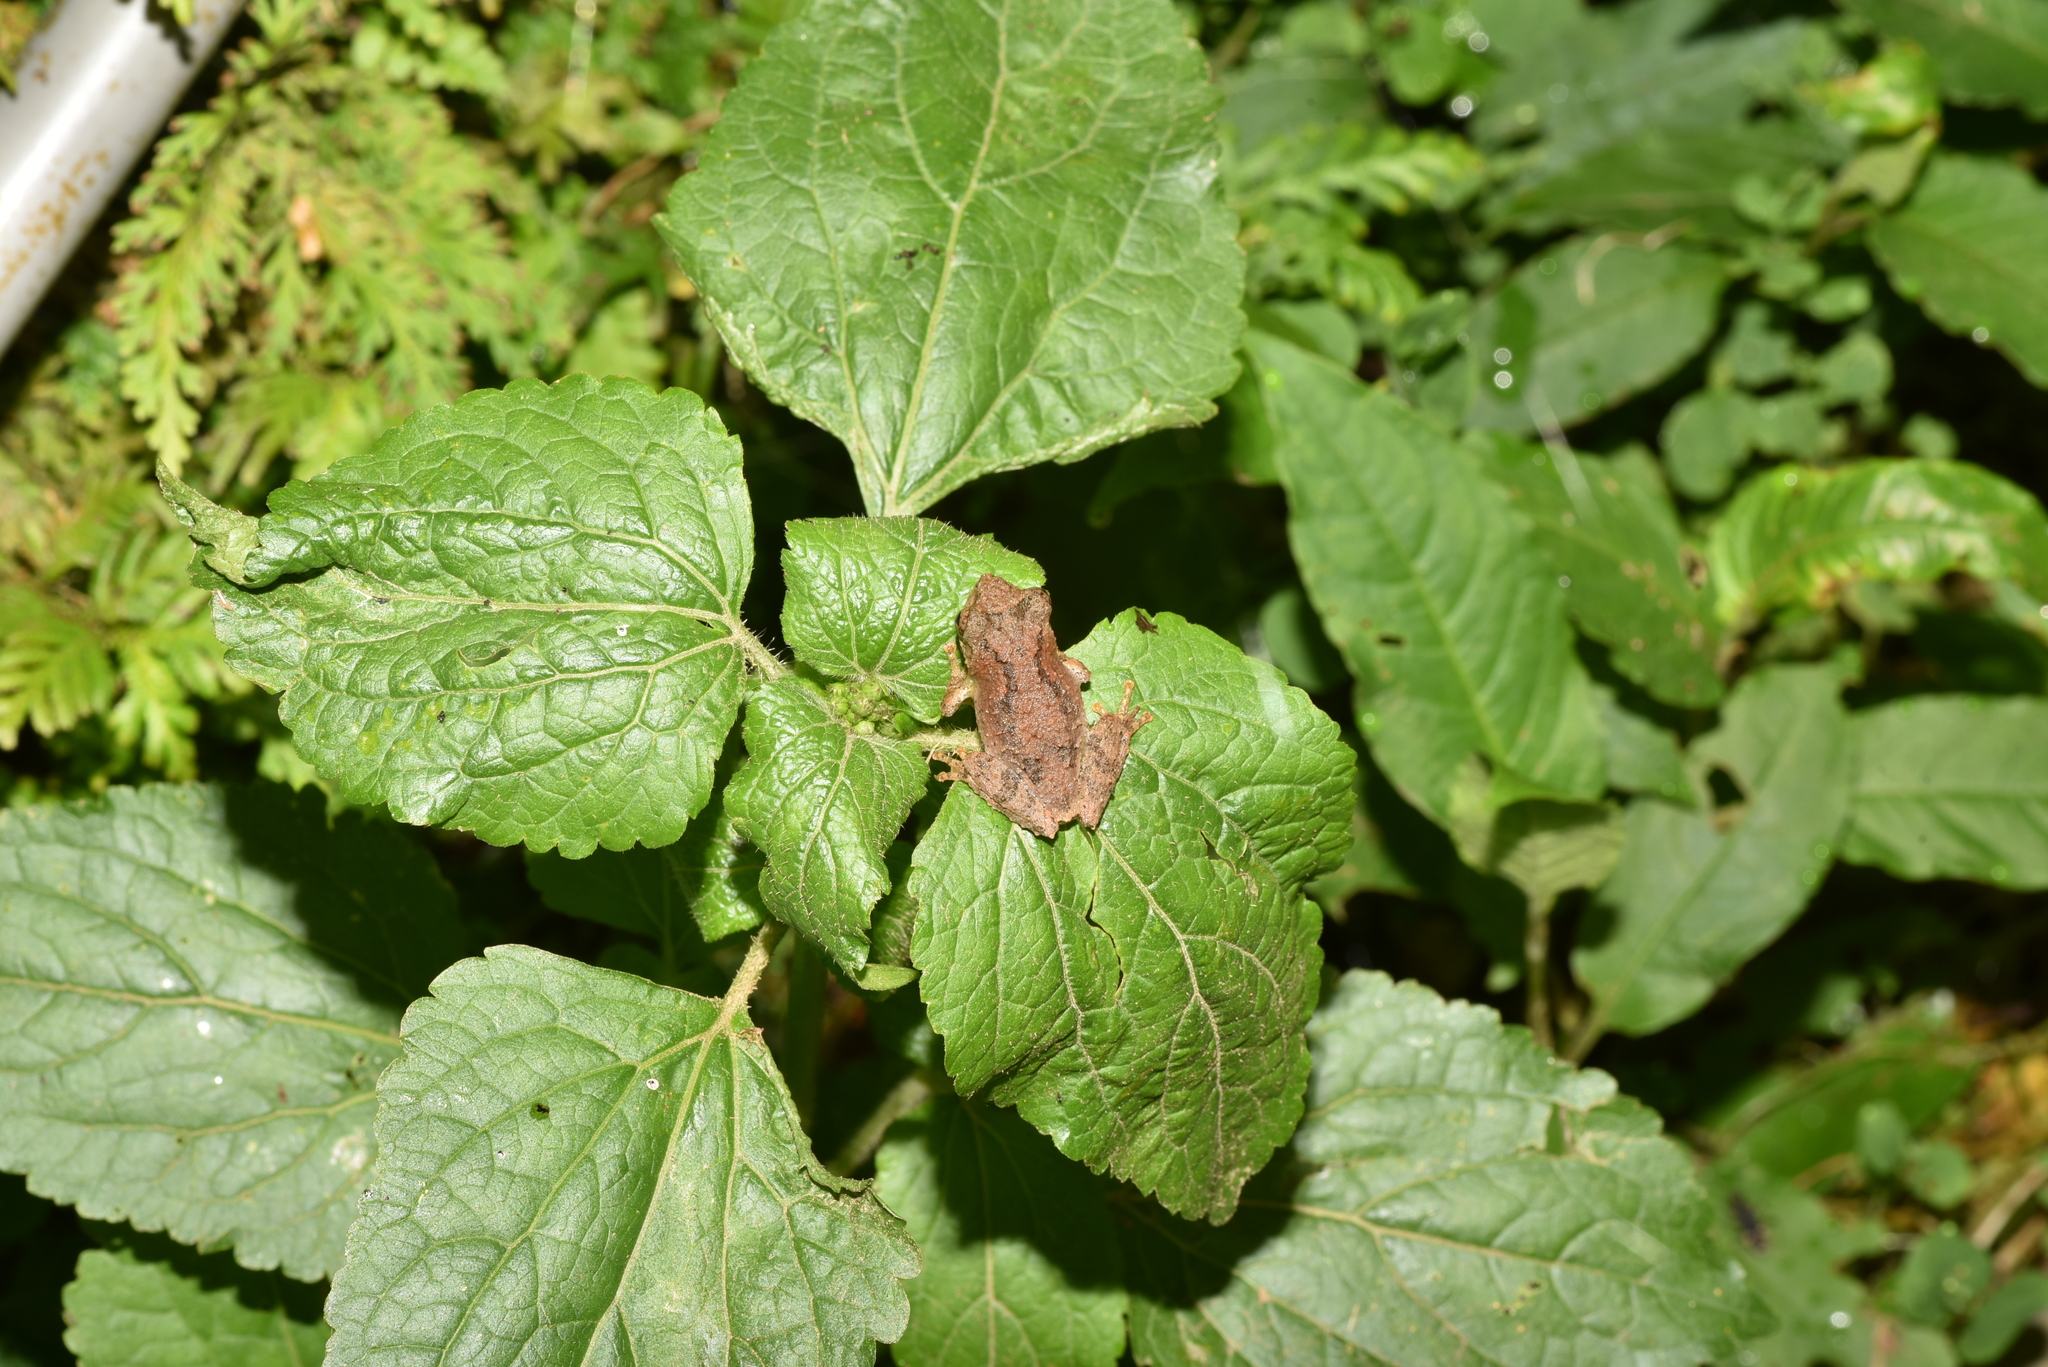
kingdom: Animalia
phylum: Chordata
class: Amphibia
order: Anura
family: Rhacophoridae
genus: Kurixalus
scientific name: Kurixalus idiootocus
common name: Temple treefrog
